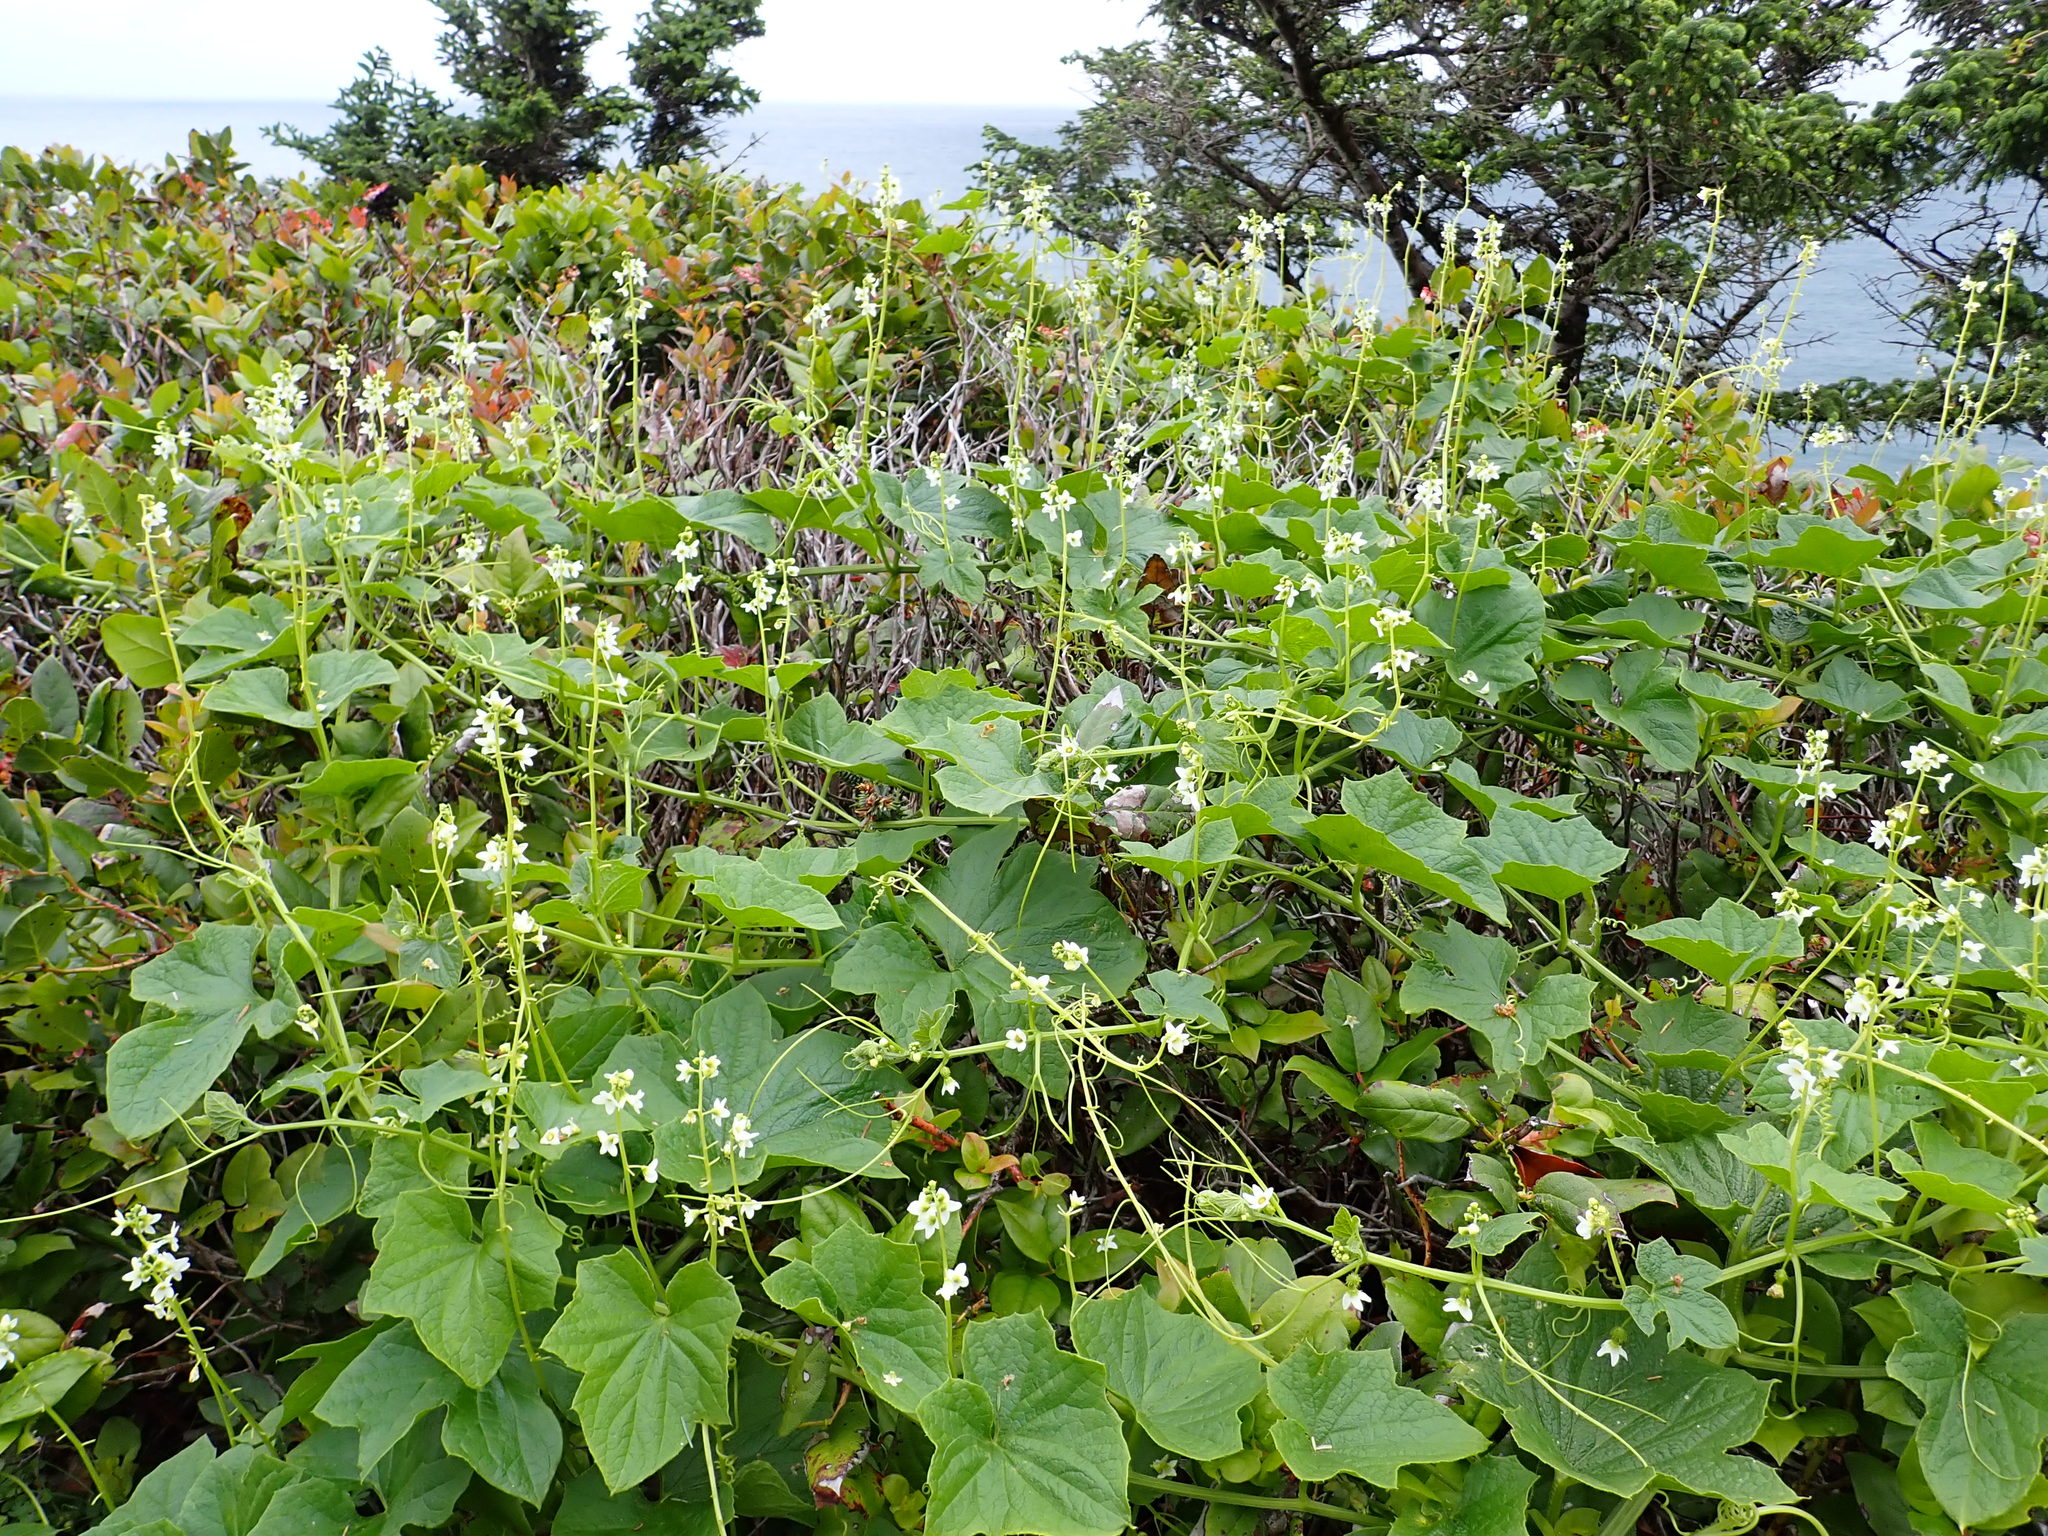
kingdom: Plantae
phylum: Tracheophyta
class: Magnoliopsida
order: Cucurbitales
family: Cucurbitaceae
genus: Marah
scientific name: Marah oregana
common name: Coastal manroot
